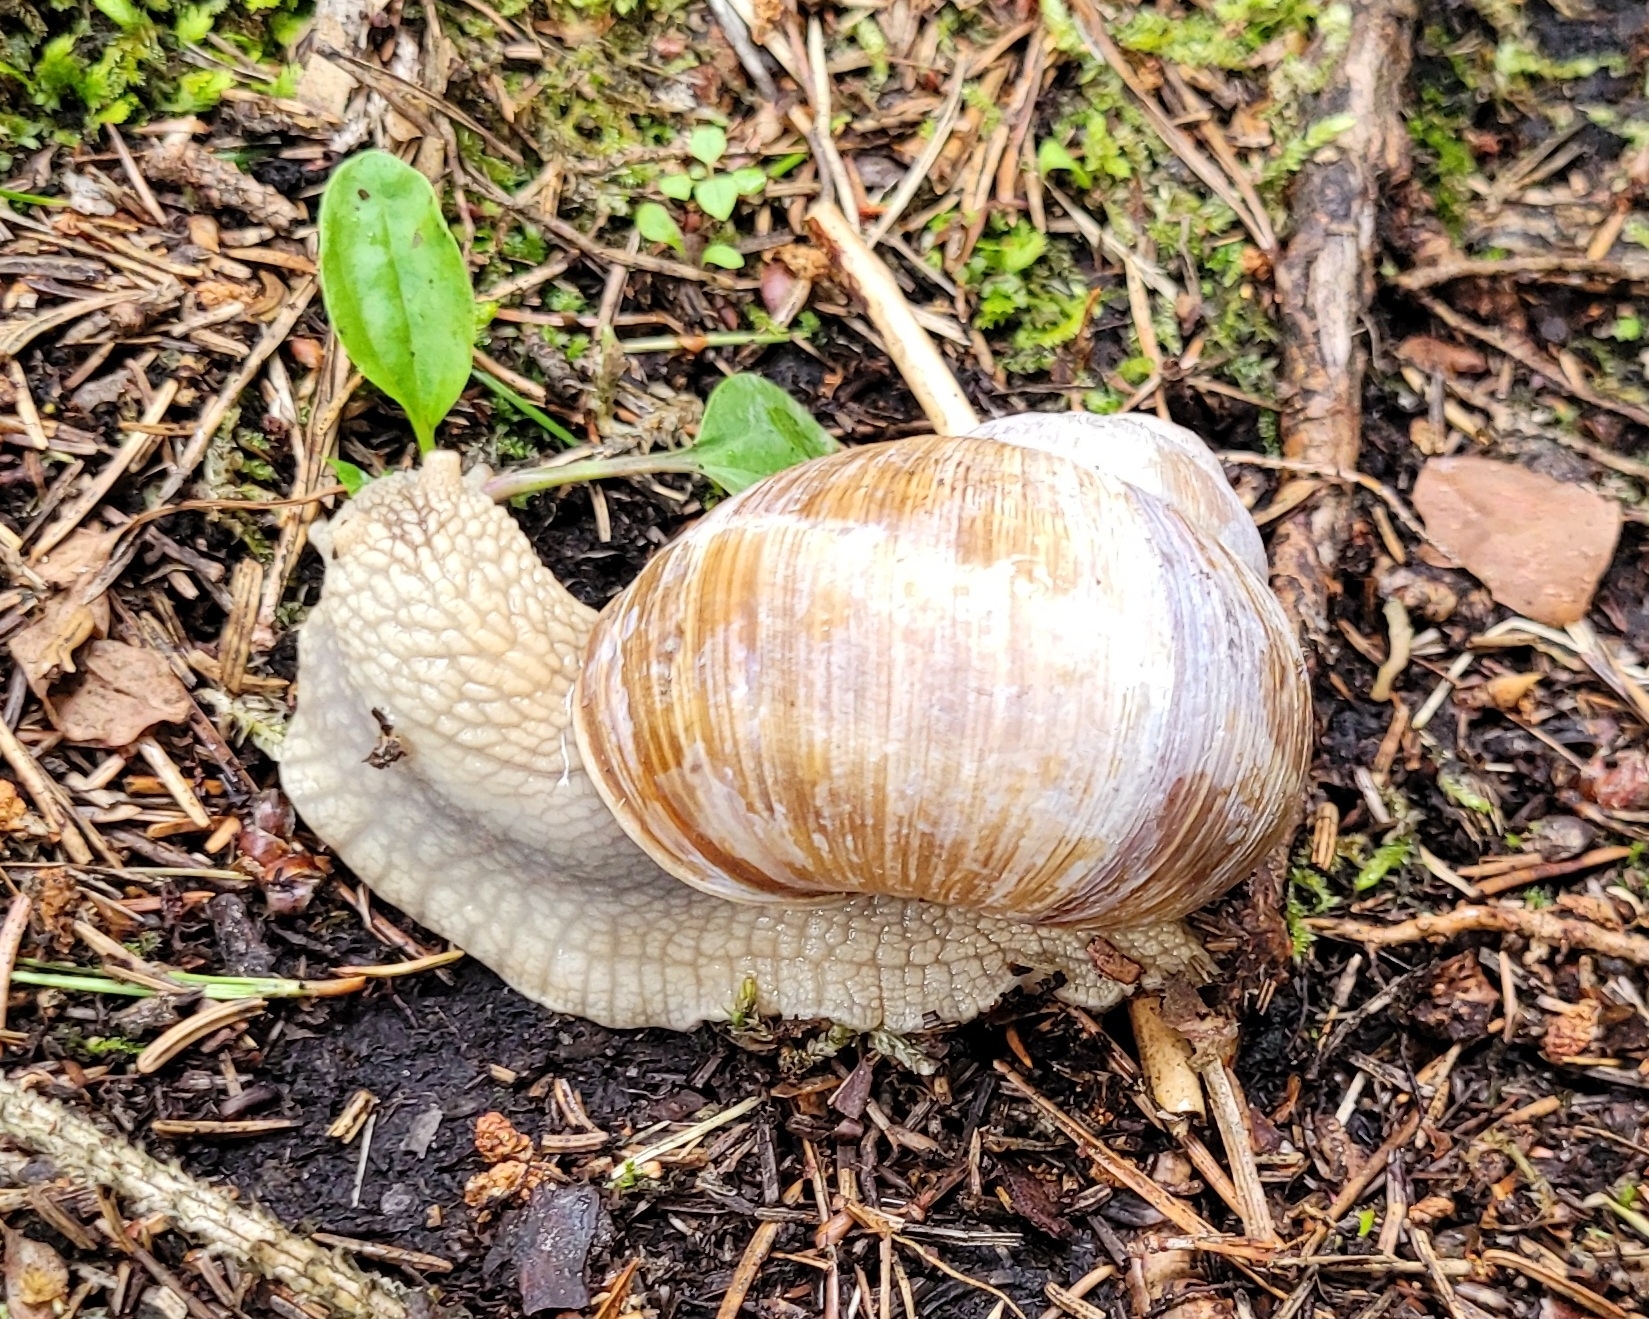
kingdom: Animalia
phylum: Mollusca
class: Gastropoda
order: Stylommatophora
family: Helicidae
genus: Helix
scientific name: Helix pomatia
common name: Roman snail
